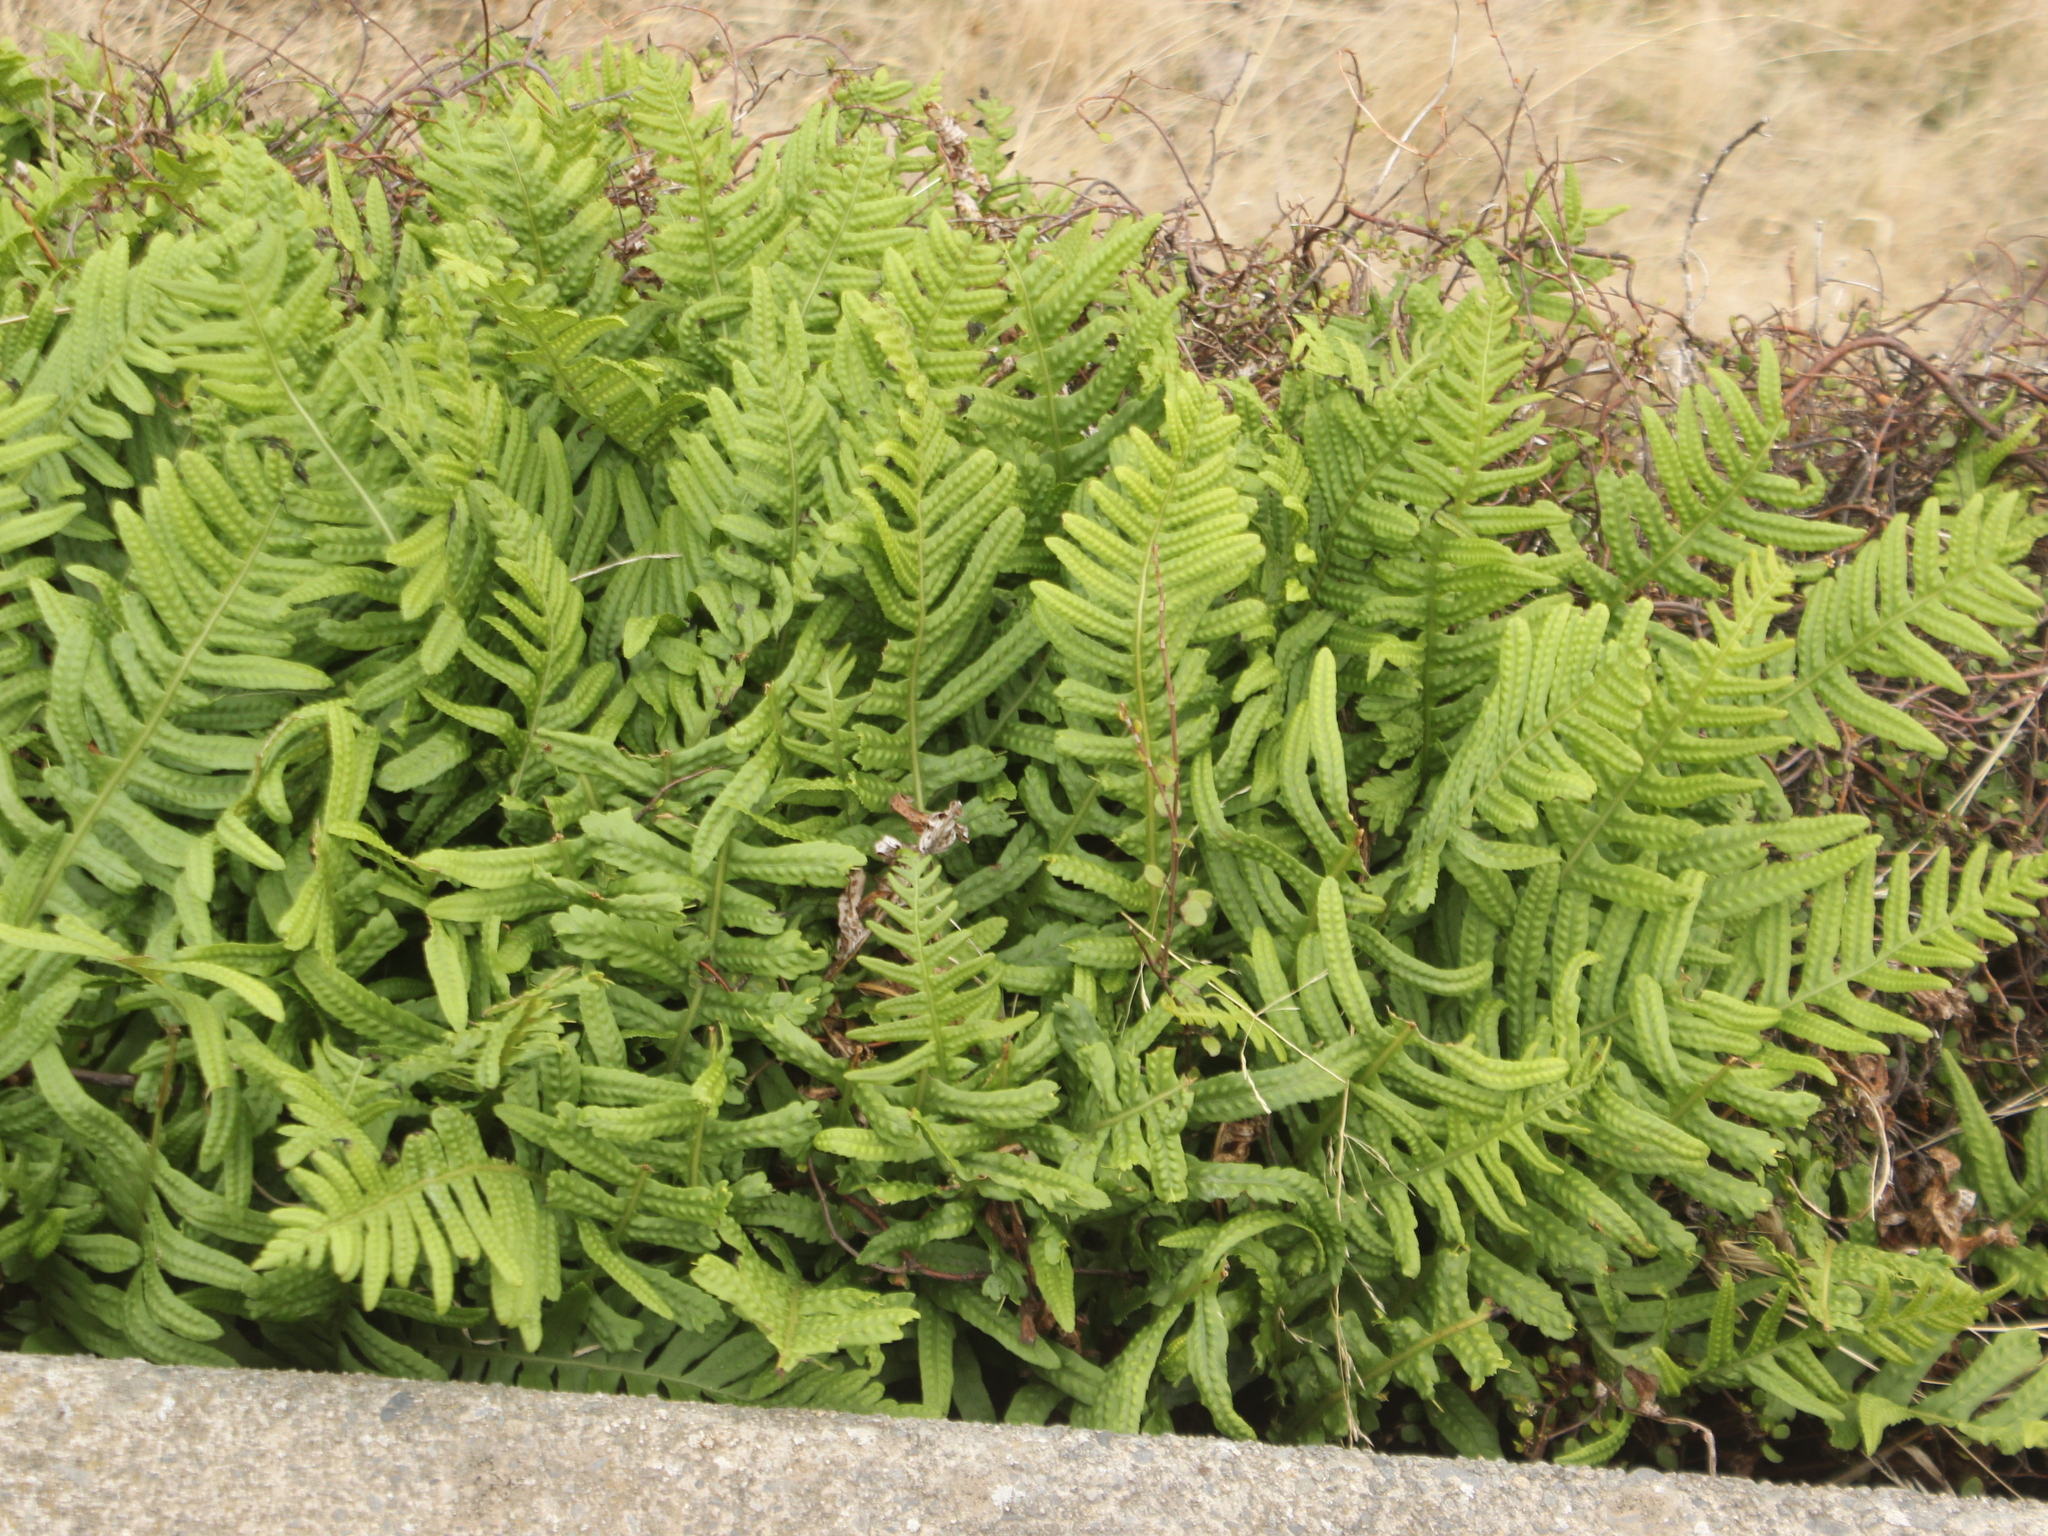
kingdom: Plantae
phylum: Tracheophyta
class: Polypodiopsida
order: Polypodiales
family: Polypodiaceae
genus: Polypodium
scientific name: Polypodium vulgare
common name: Common polypody
